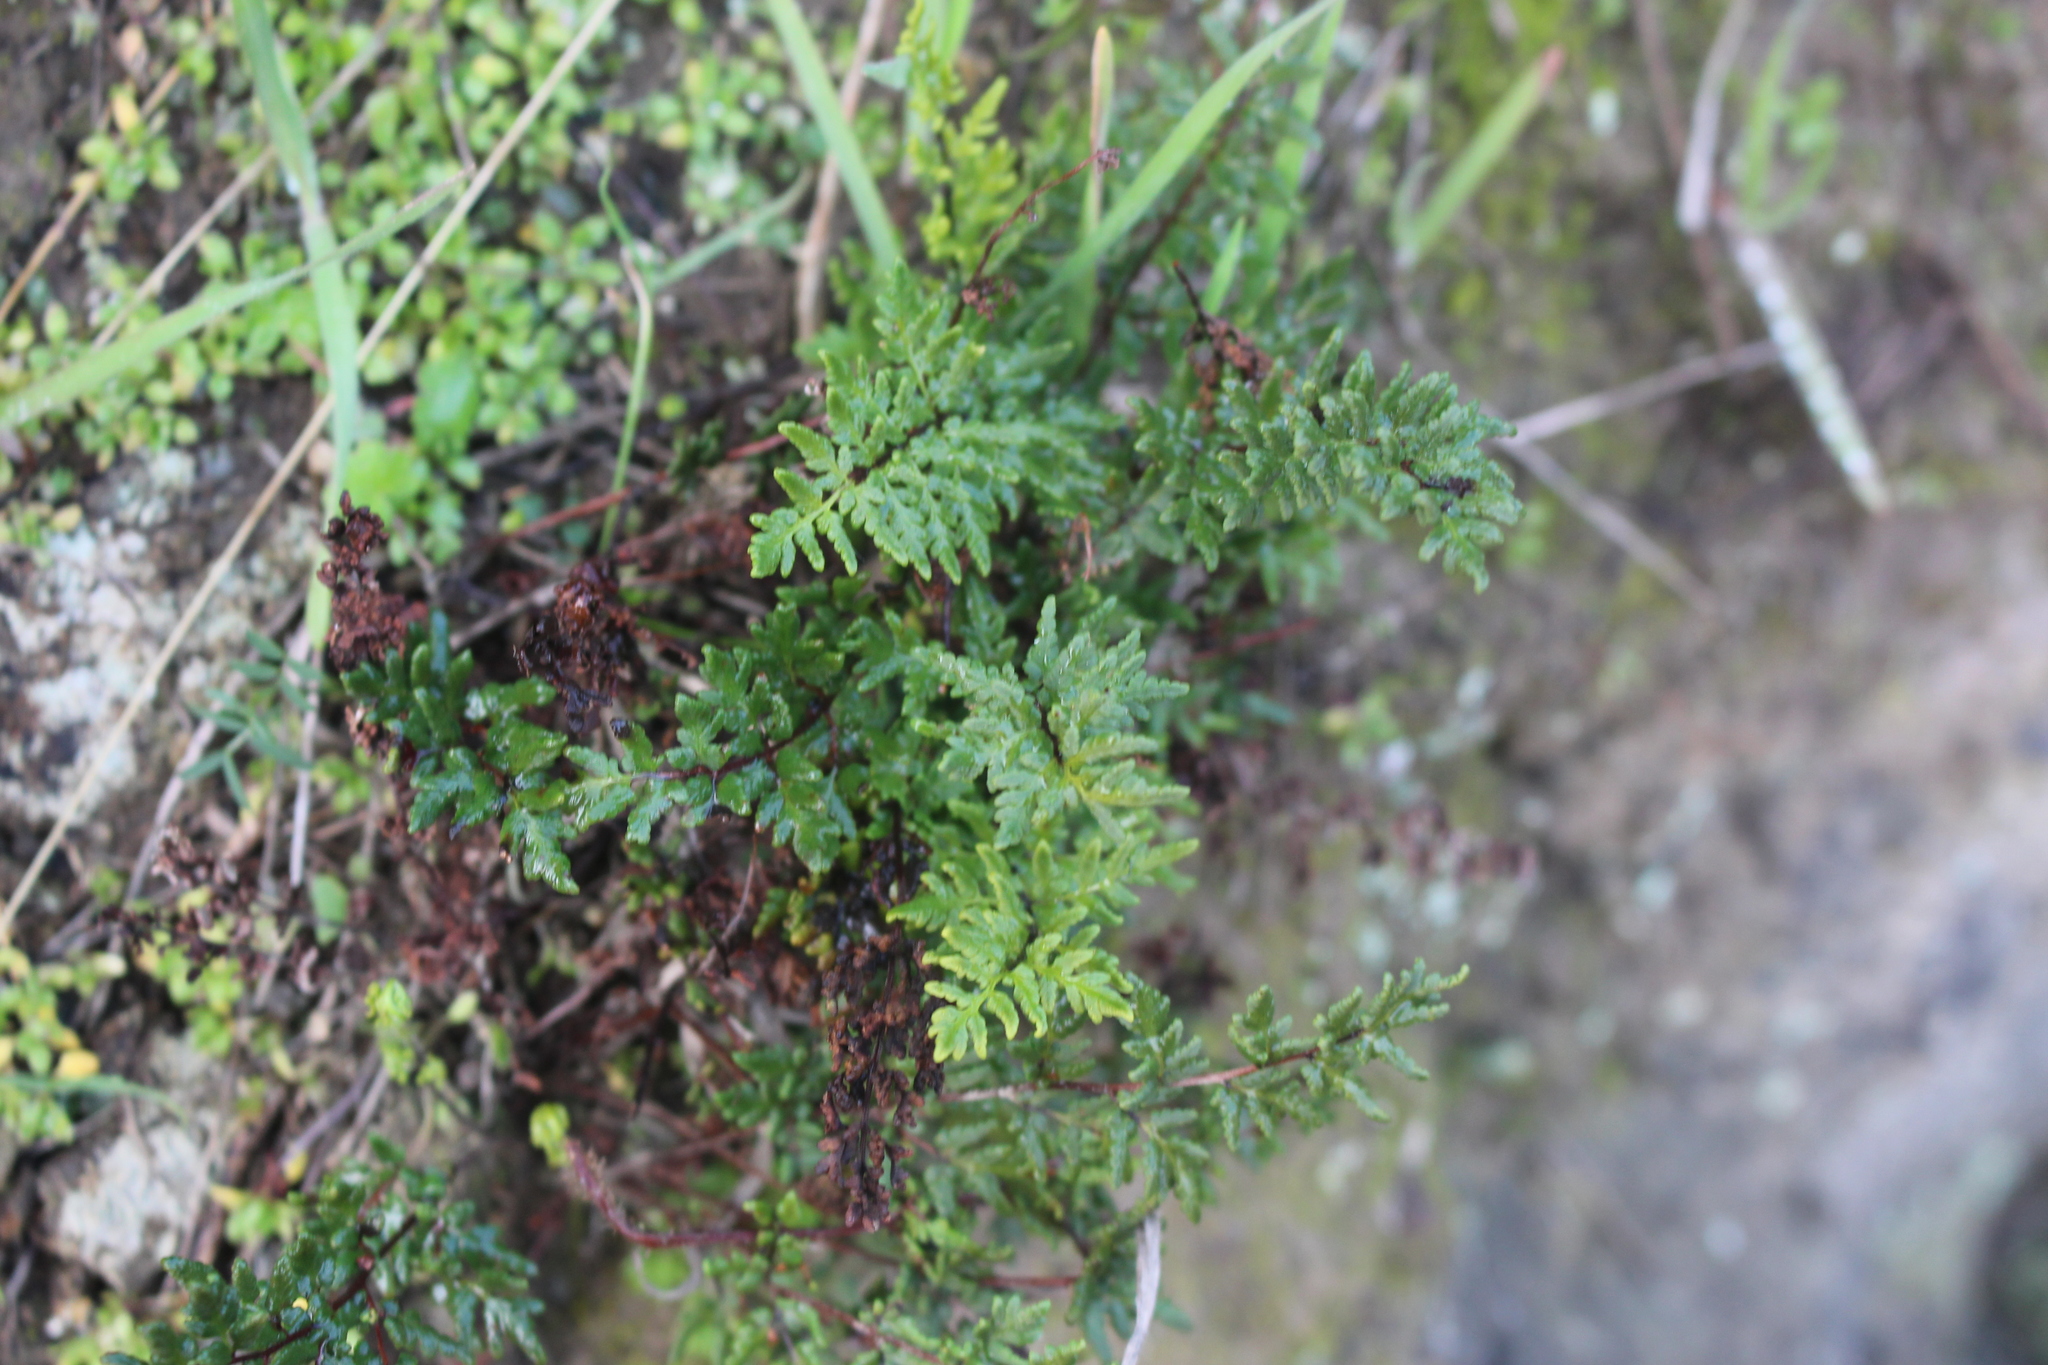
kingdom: Plantae
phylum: Tracheophyta
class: Polypodiopsida
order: Polypodiales
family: Pteridaceae
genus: Cheilanthes
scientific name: Cheilanthes sieberi
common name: Mulga fern
